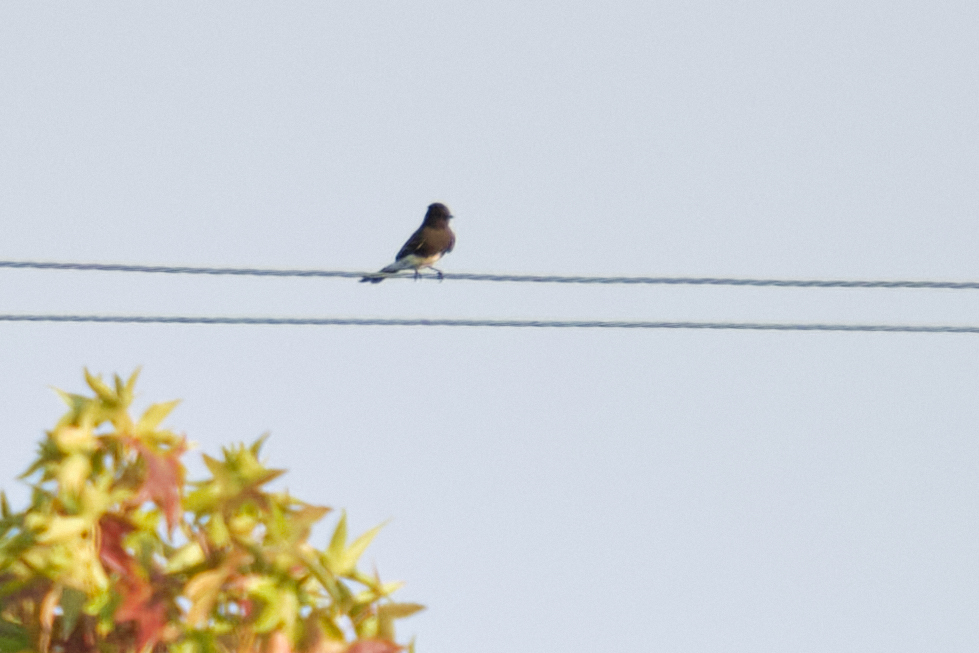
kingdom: Animalia
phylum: Chordata
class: Aves
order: Passeriformes
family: Tyrannidae
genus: Sayornis
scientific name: Sayornis nigricans
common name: Black phoebe
